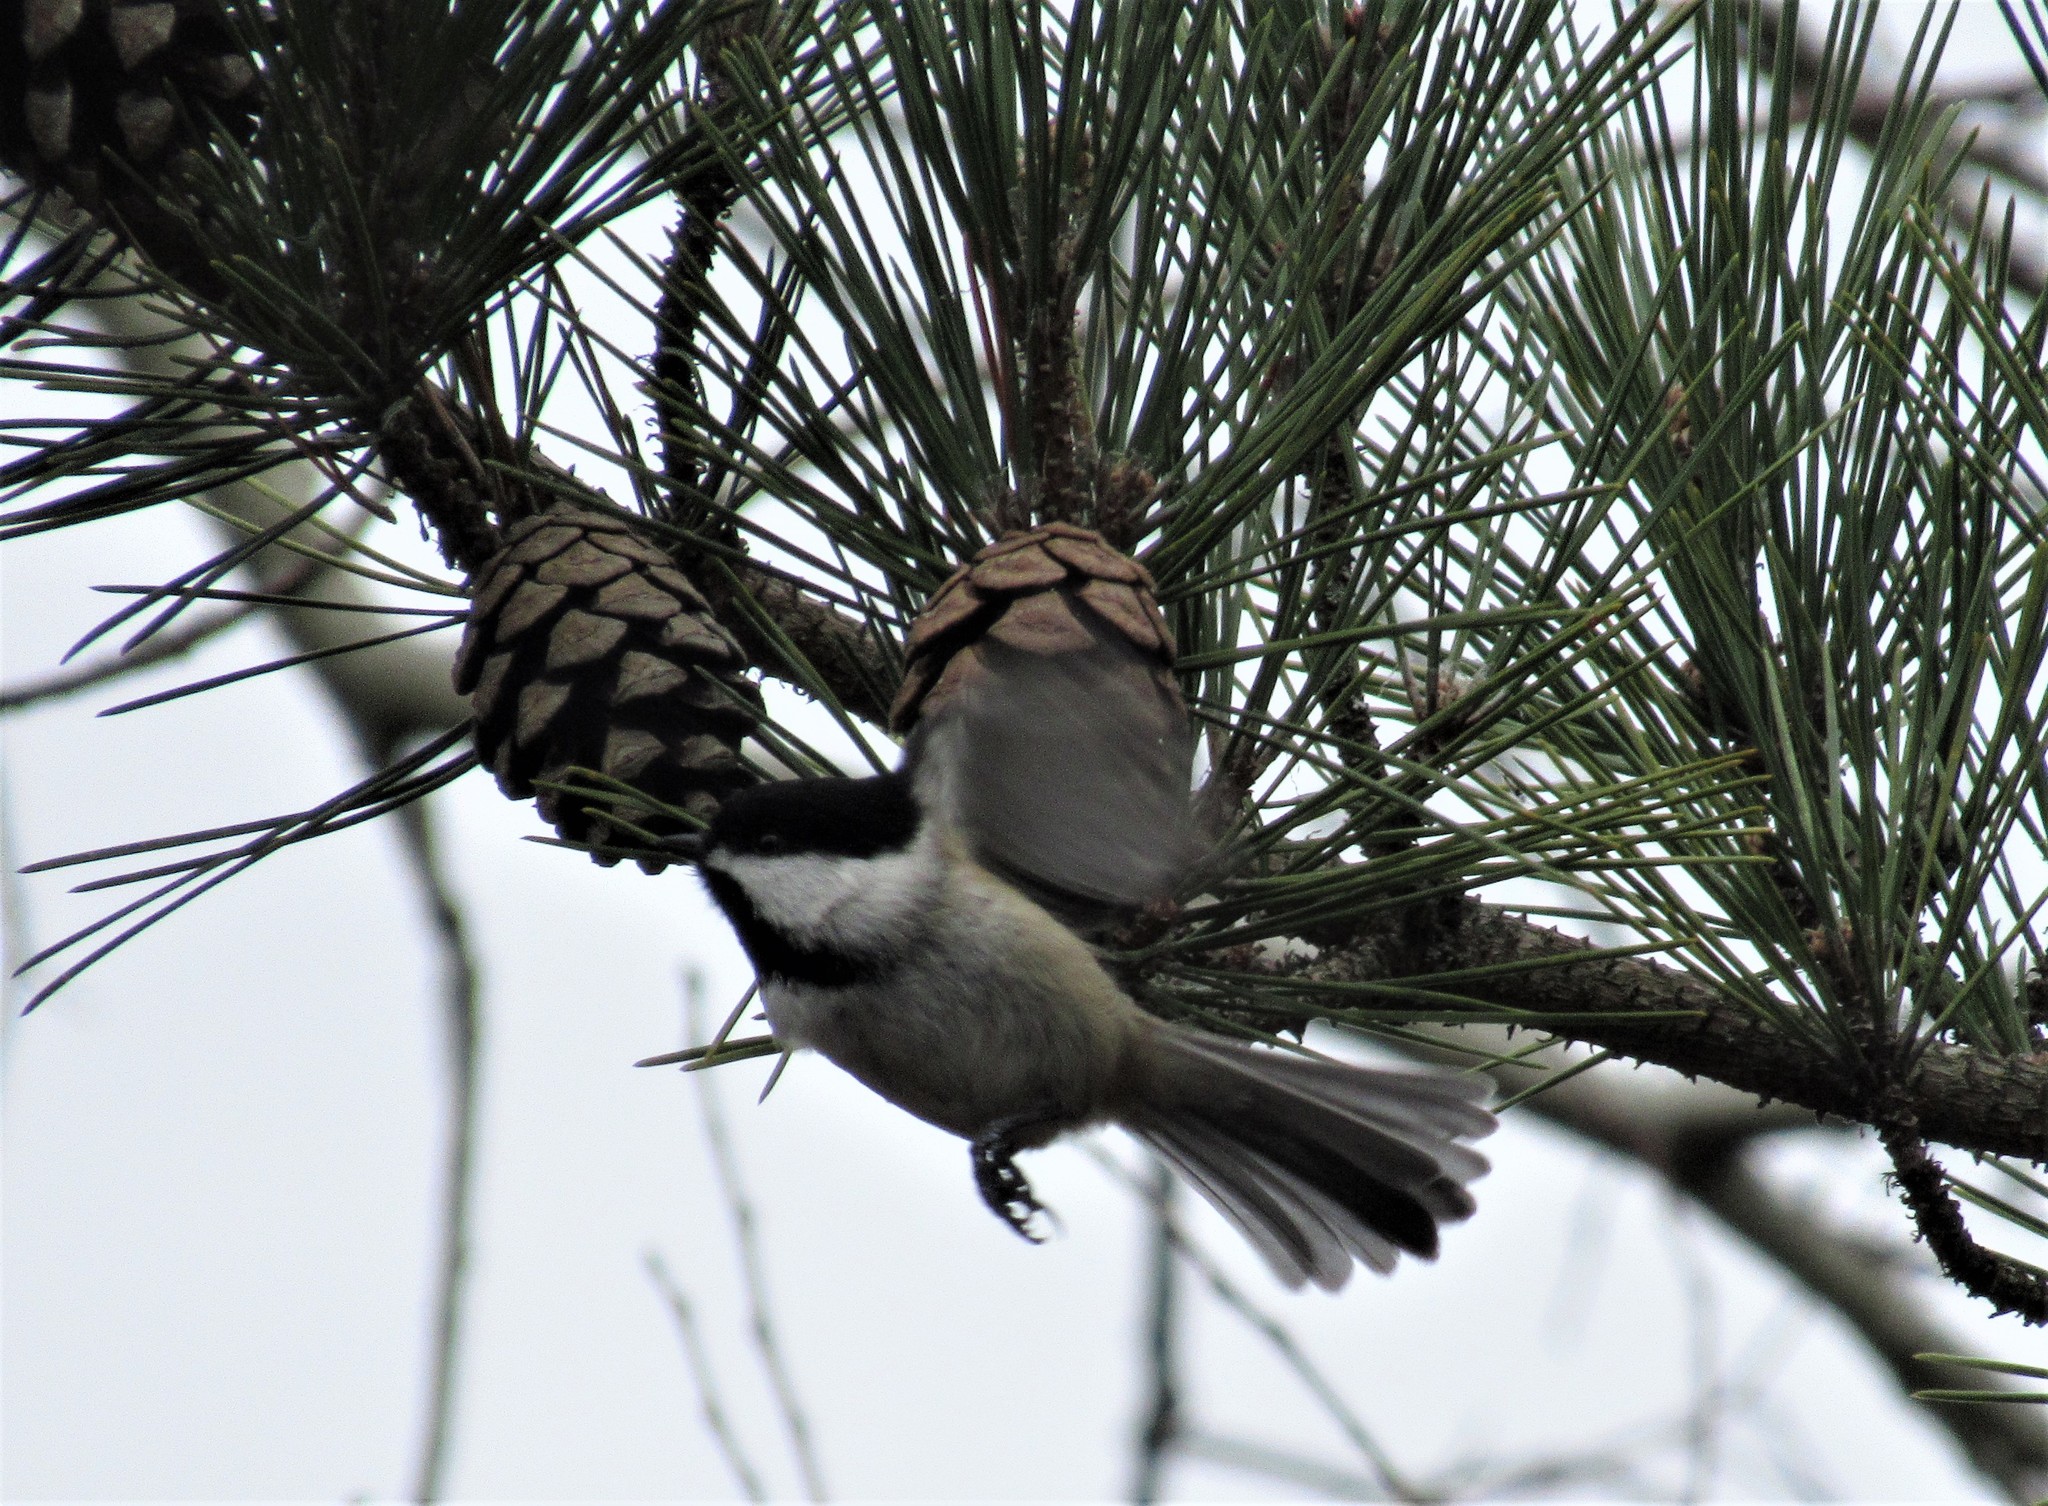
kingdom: Animalia
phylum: Chordata
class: Aves
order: Passeriformes
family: Paridae
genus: Poecile
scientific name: Poecile atricapillus
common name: Black-capped chickadee
